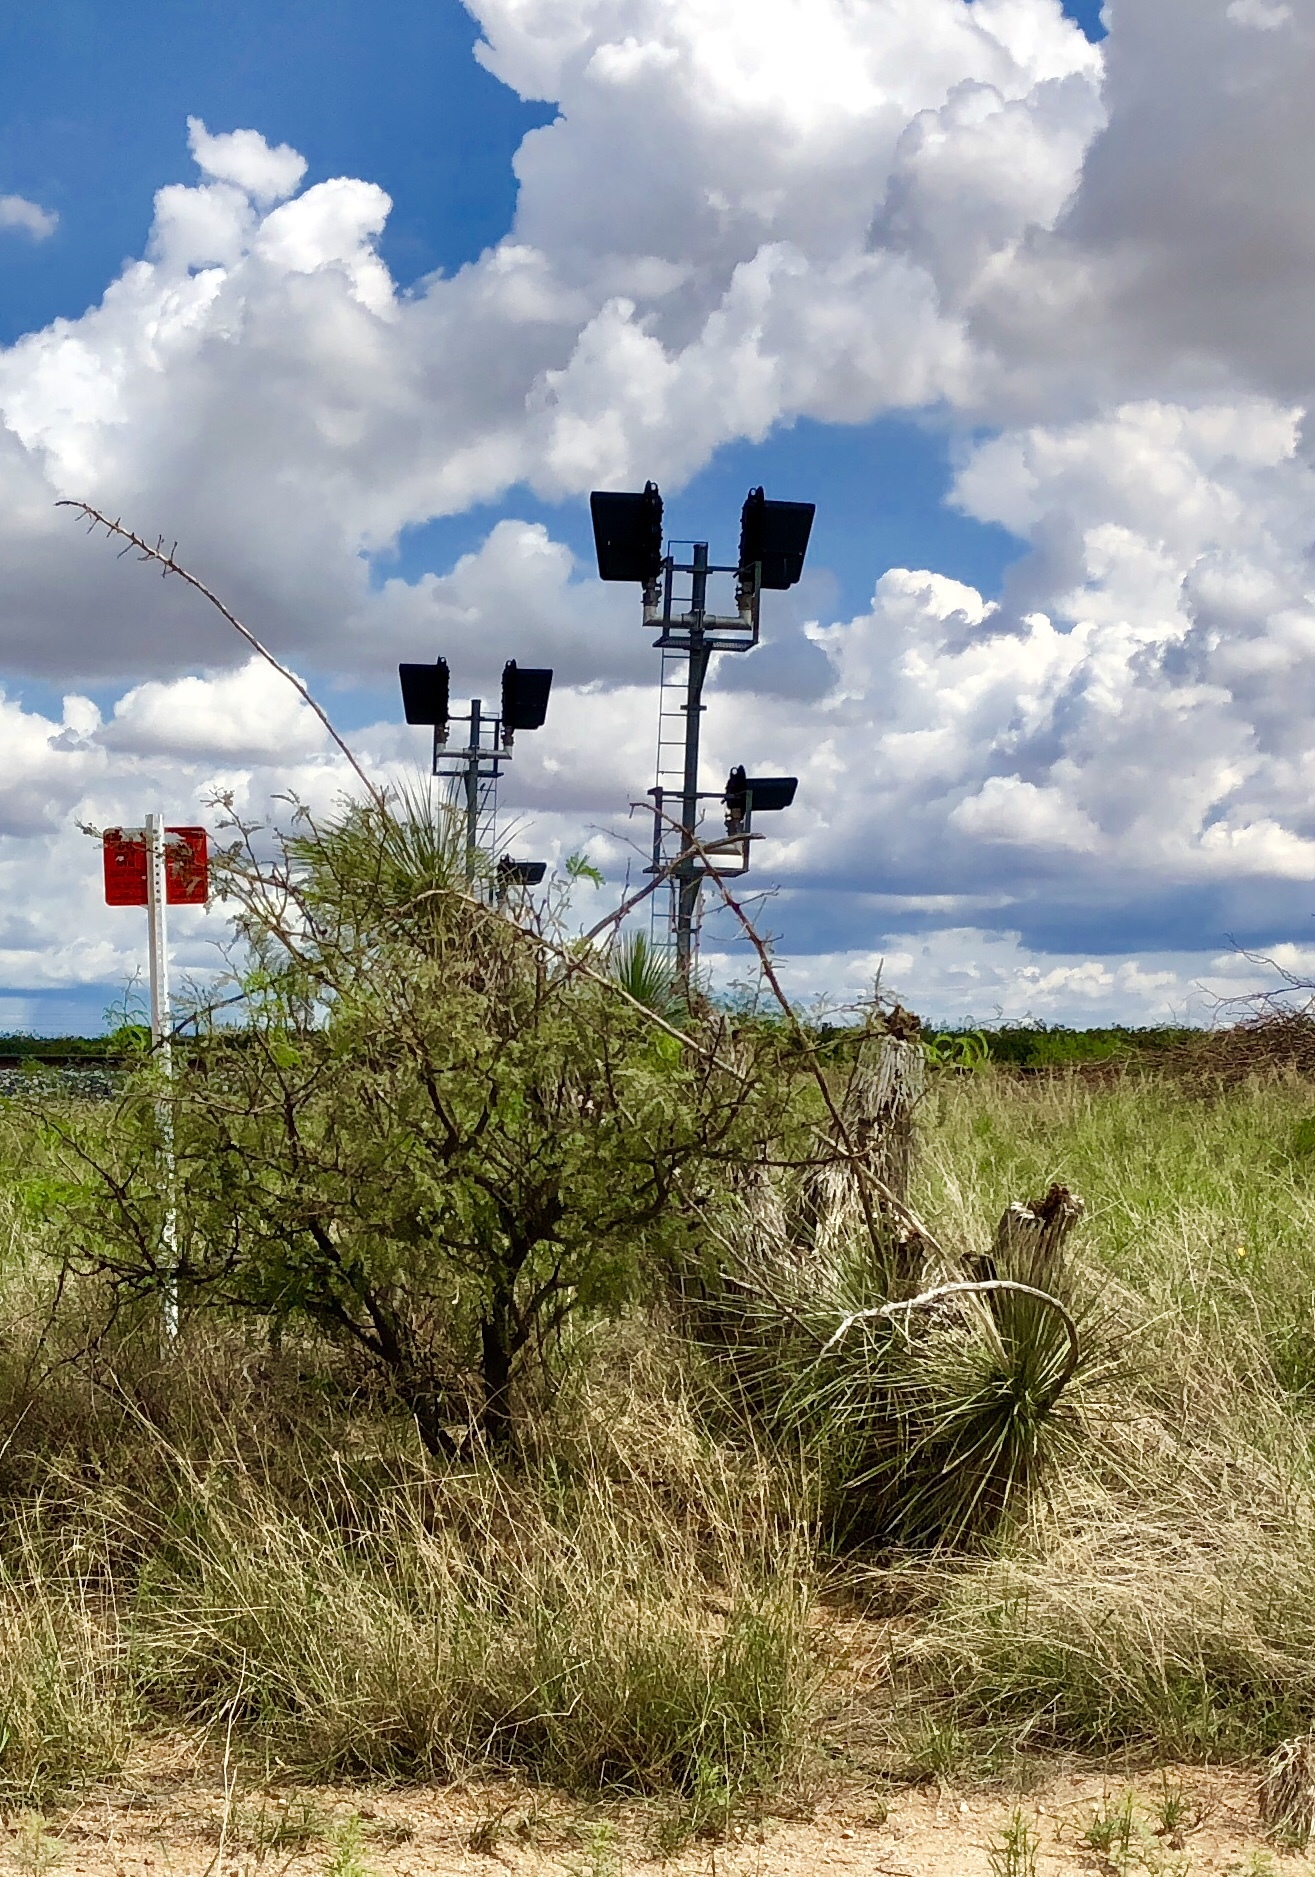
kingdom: Plantae
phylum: Tracheophyta
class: Liliopsida
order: Asparagales
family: Asparagaceae
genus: Yucca
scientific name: Yucca elata
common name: Palmella
